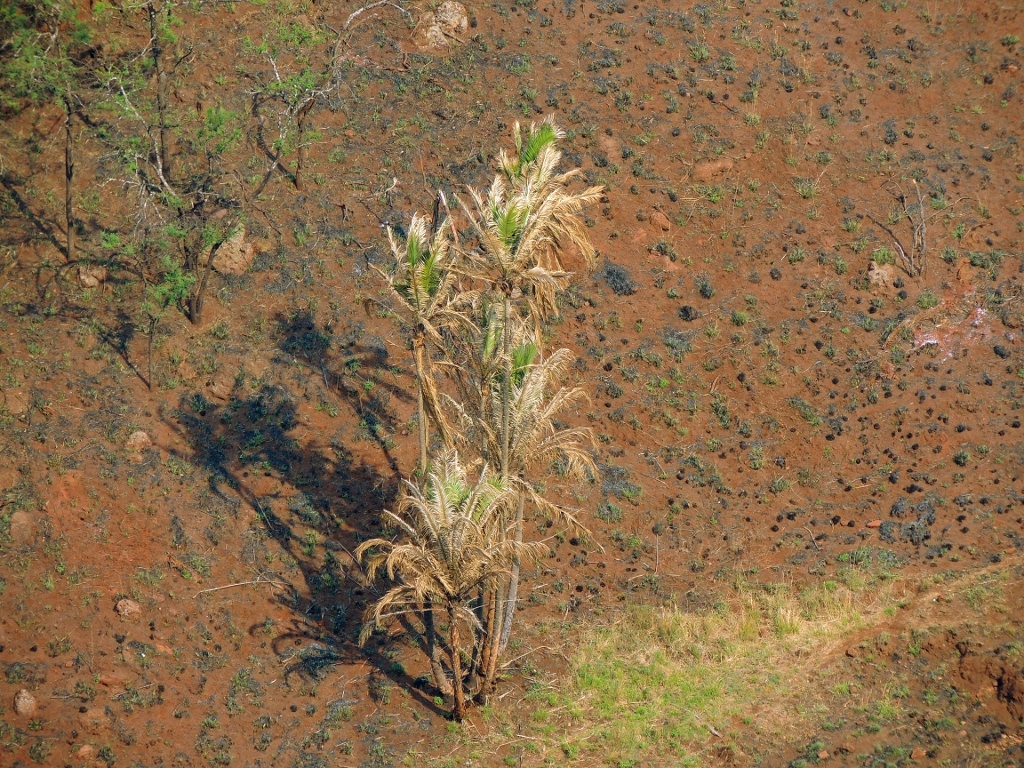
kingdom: Plantae
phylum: Tracheophyta
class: Liliopsida
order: Arecales
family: Arecaceae
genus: Phoenix
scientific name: Phoenix reclinata
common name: Senegal date palm
